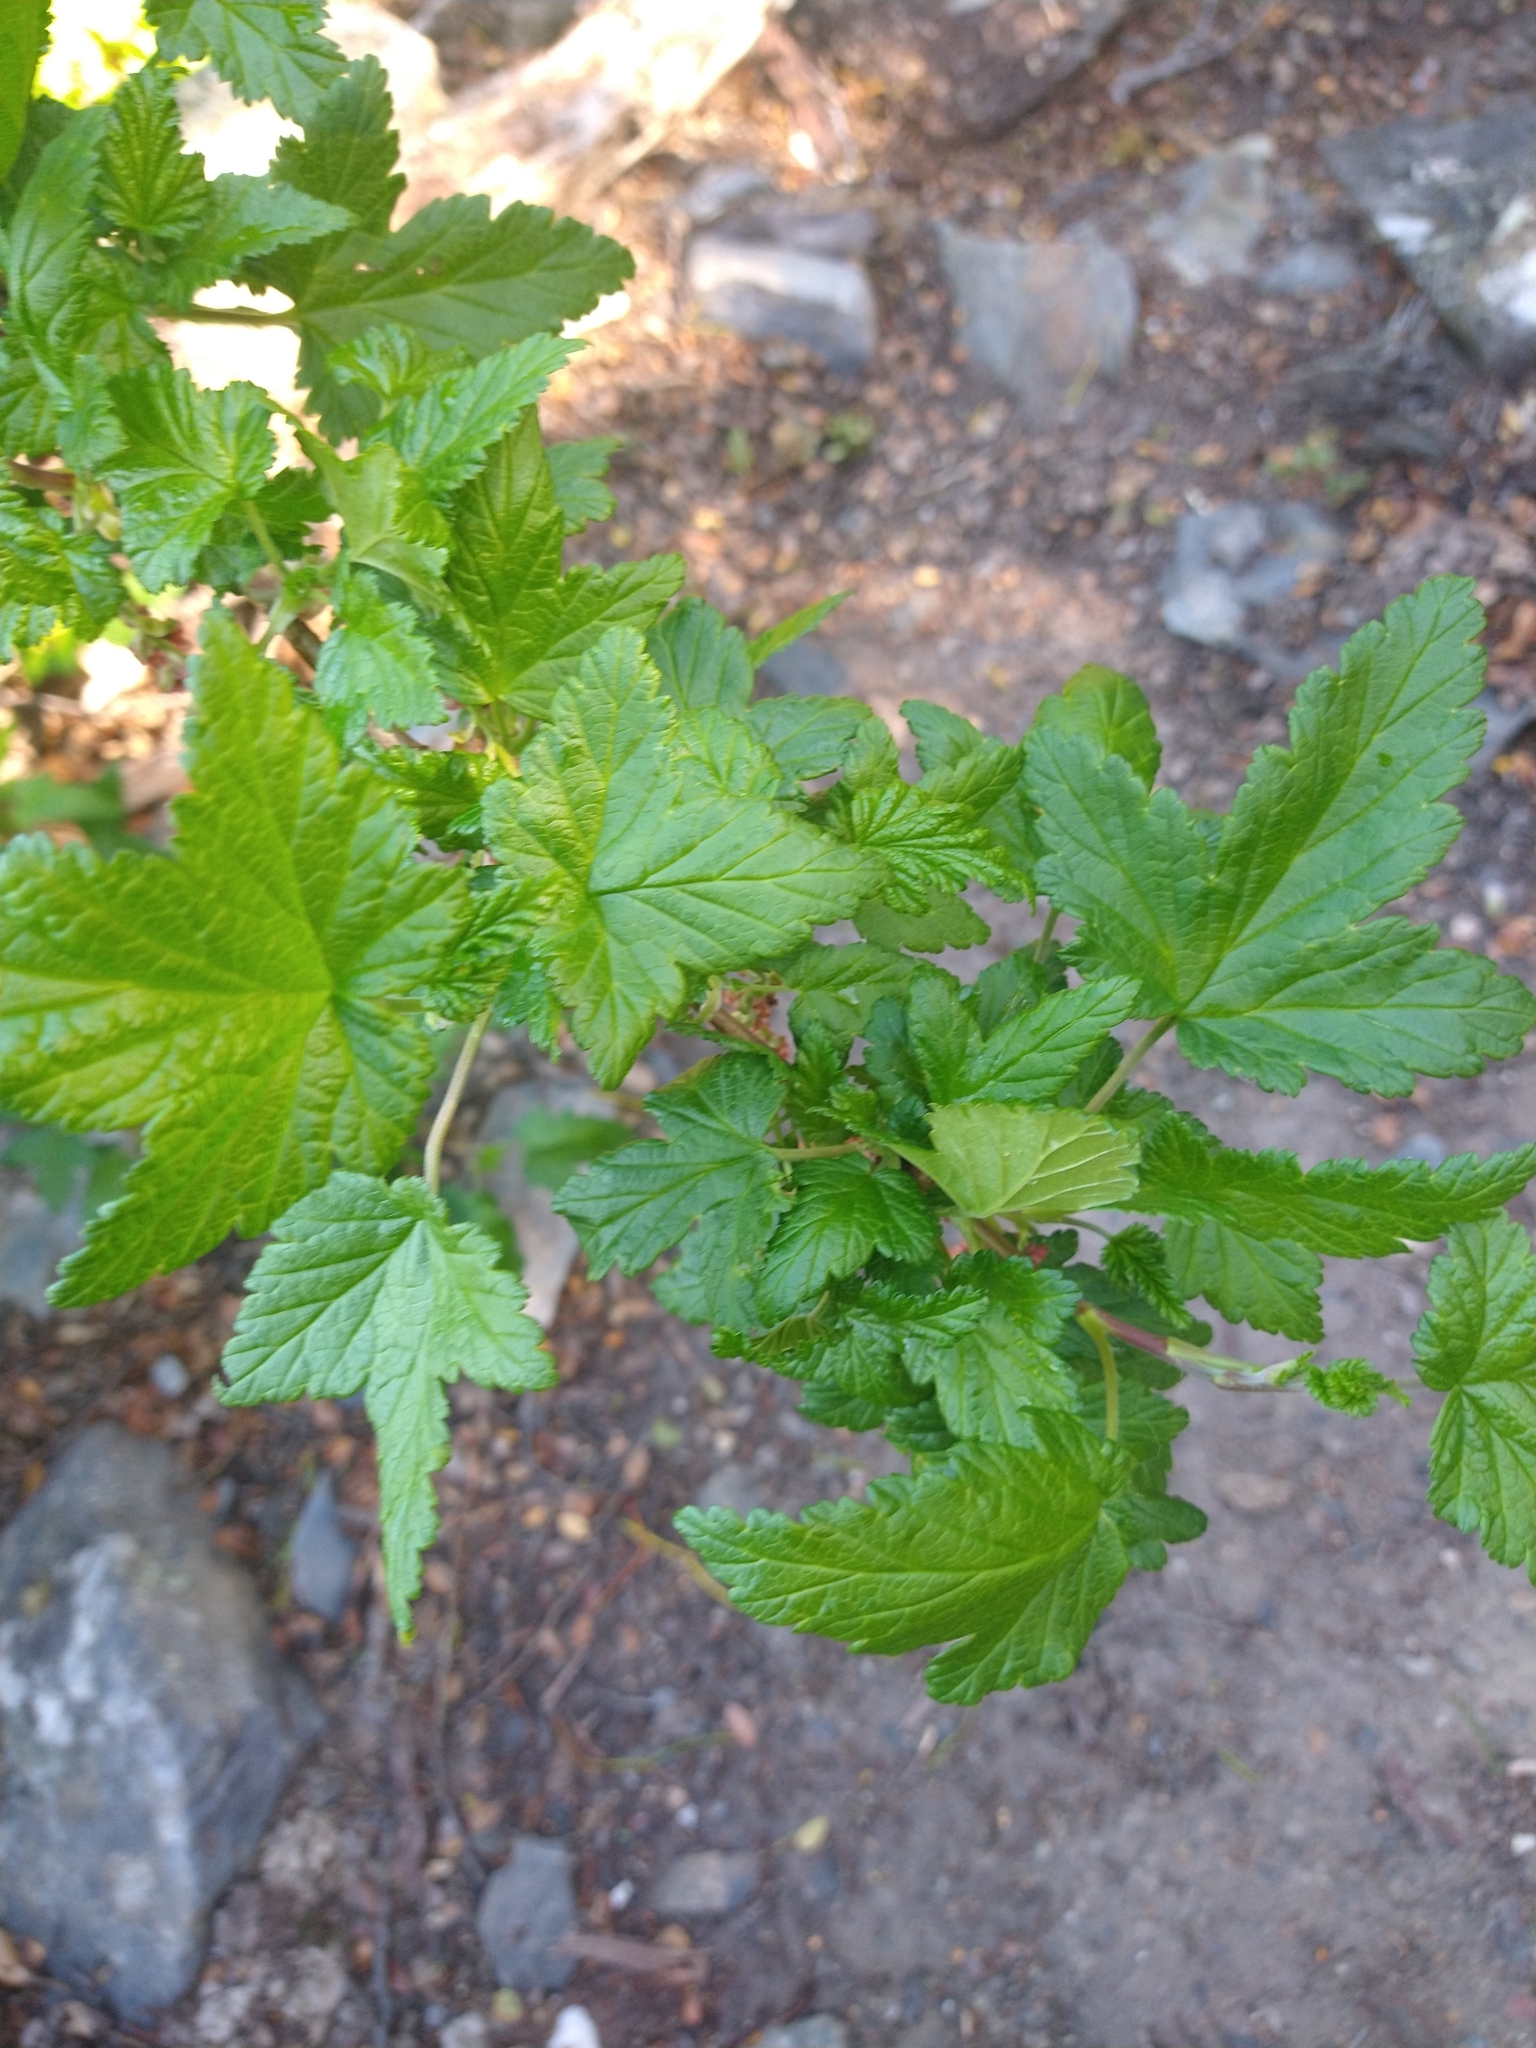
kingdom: Plantae
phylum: Tracheophyta
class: Magnoliopsida
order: Saxifragales
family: Grossulariaceae
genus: Ribes
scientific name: Ribes magellanicum
